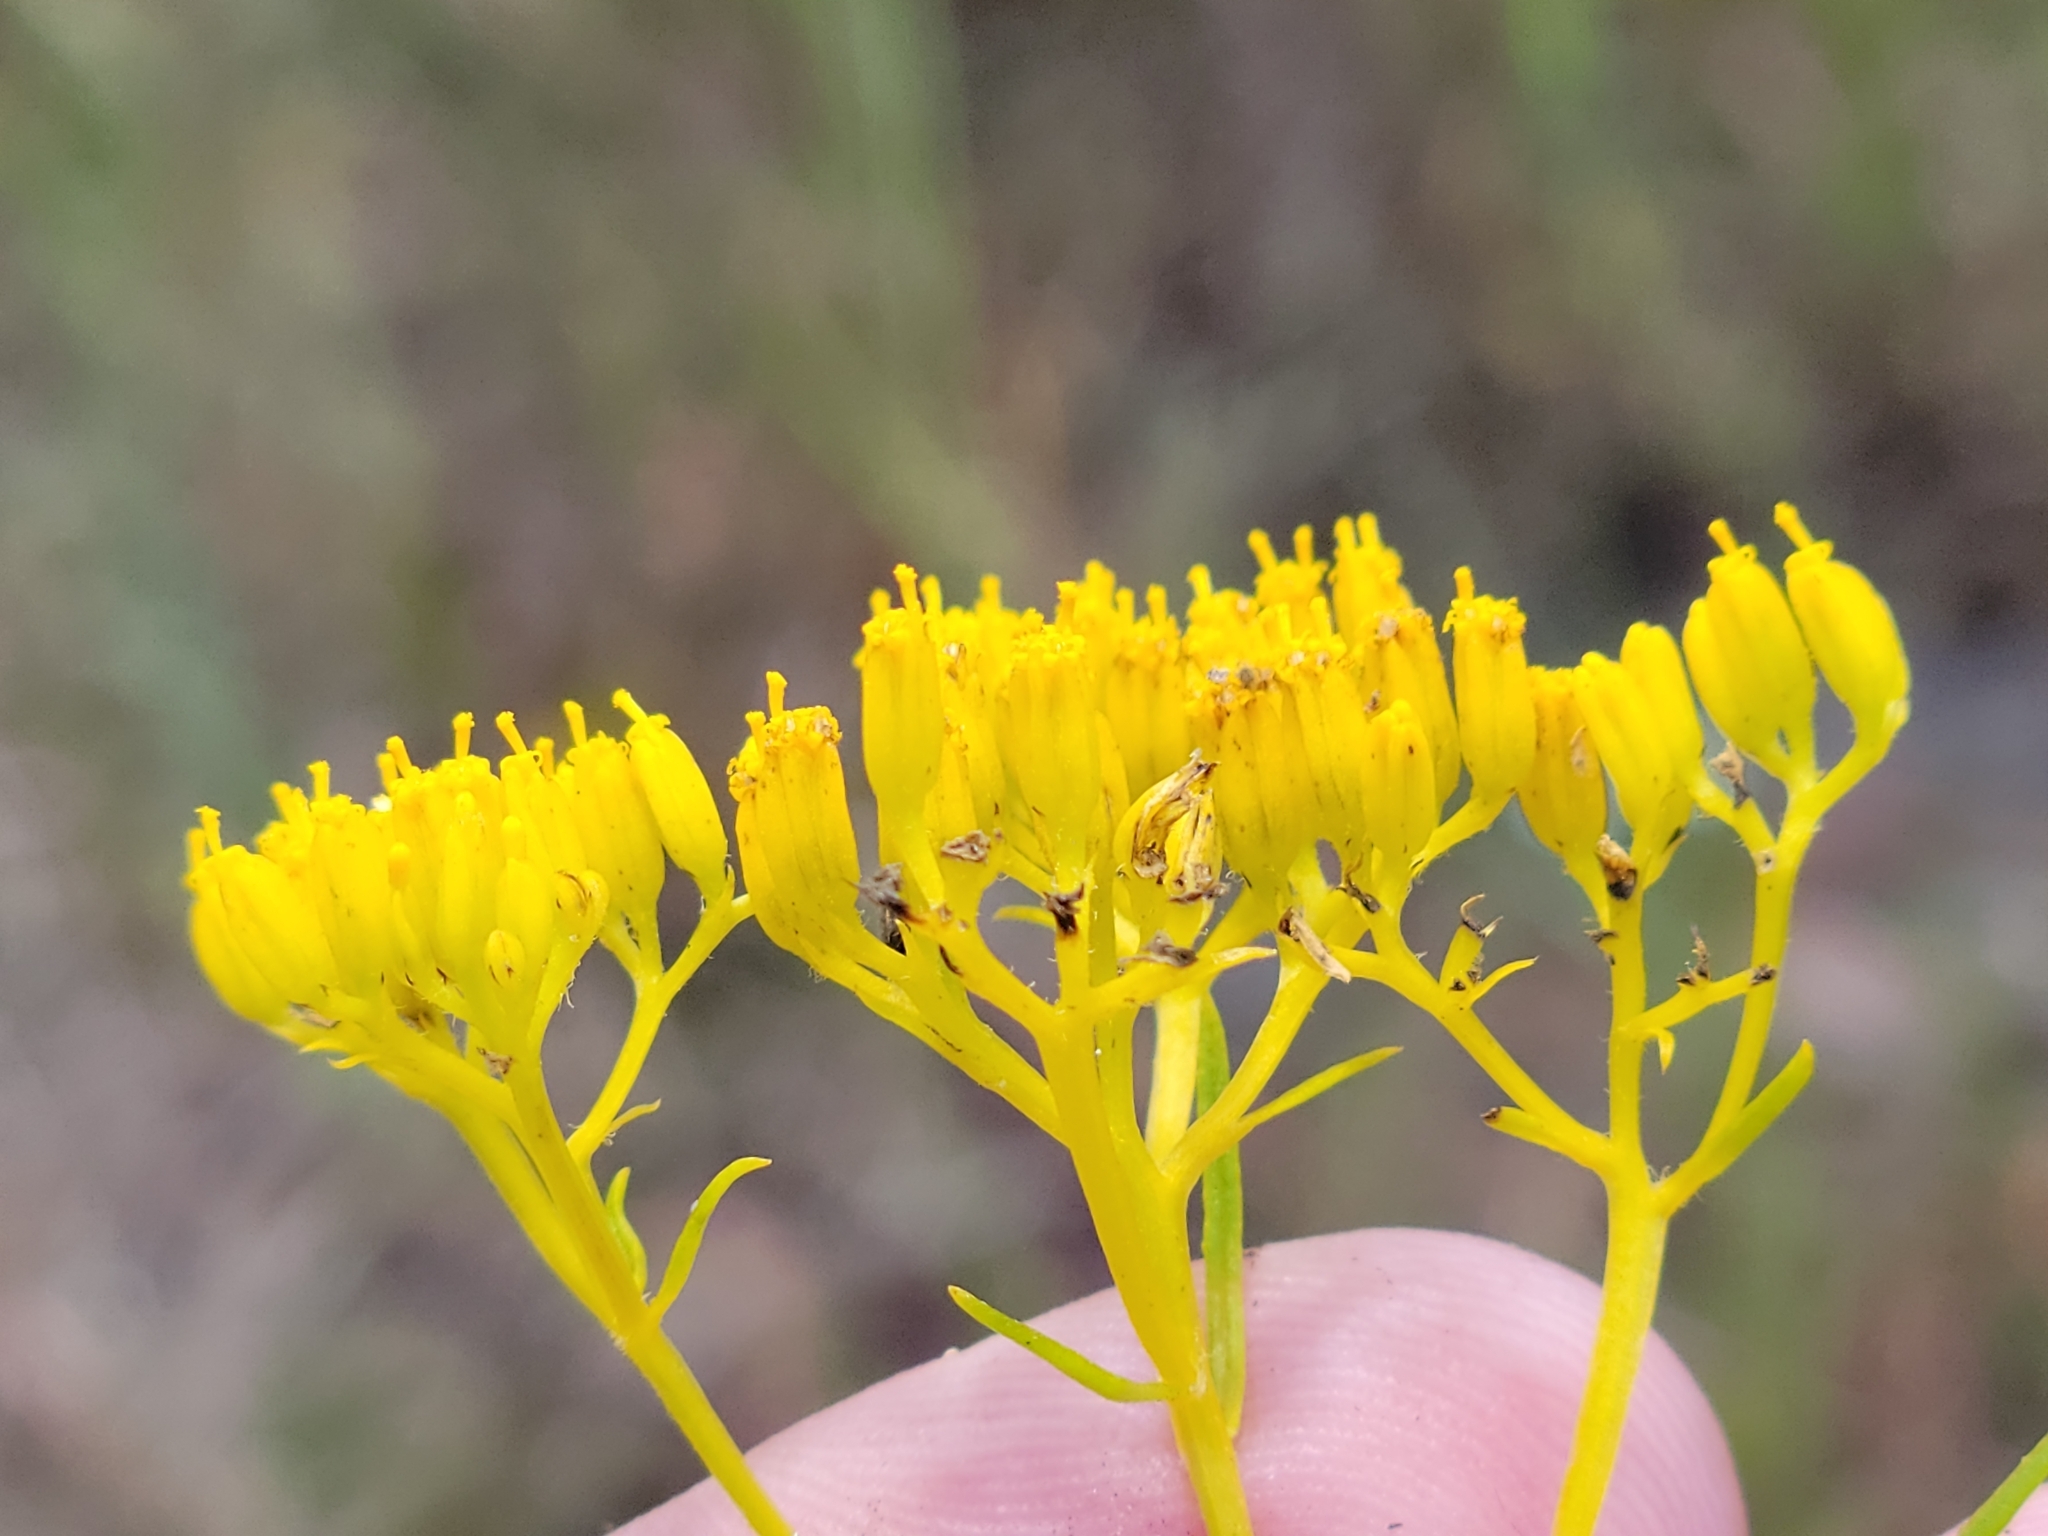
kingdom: Plantae
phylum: Tracheophyta
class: Magnoliopsida
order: Asterales
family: Asteraceae
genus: Flaveria
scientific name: Flaveria linearis
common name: Yellowtop
